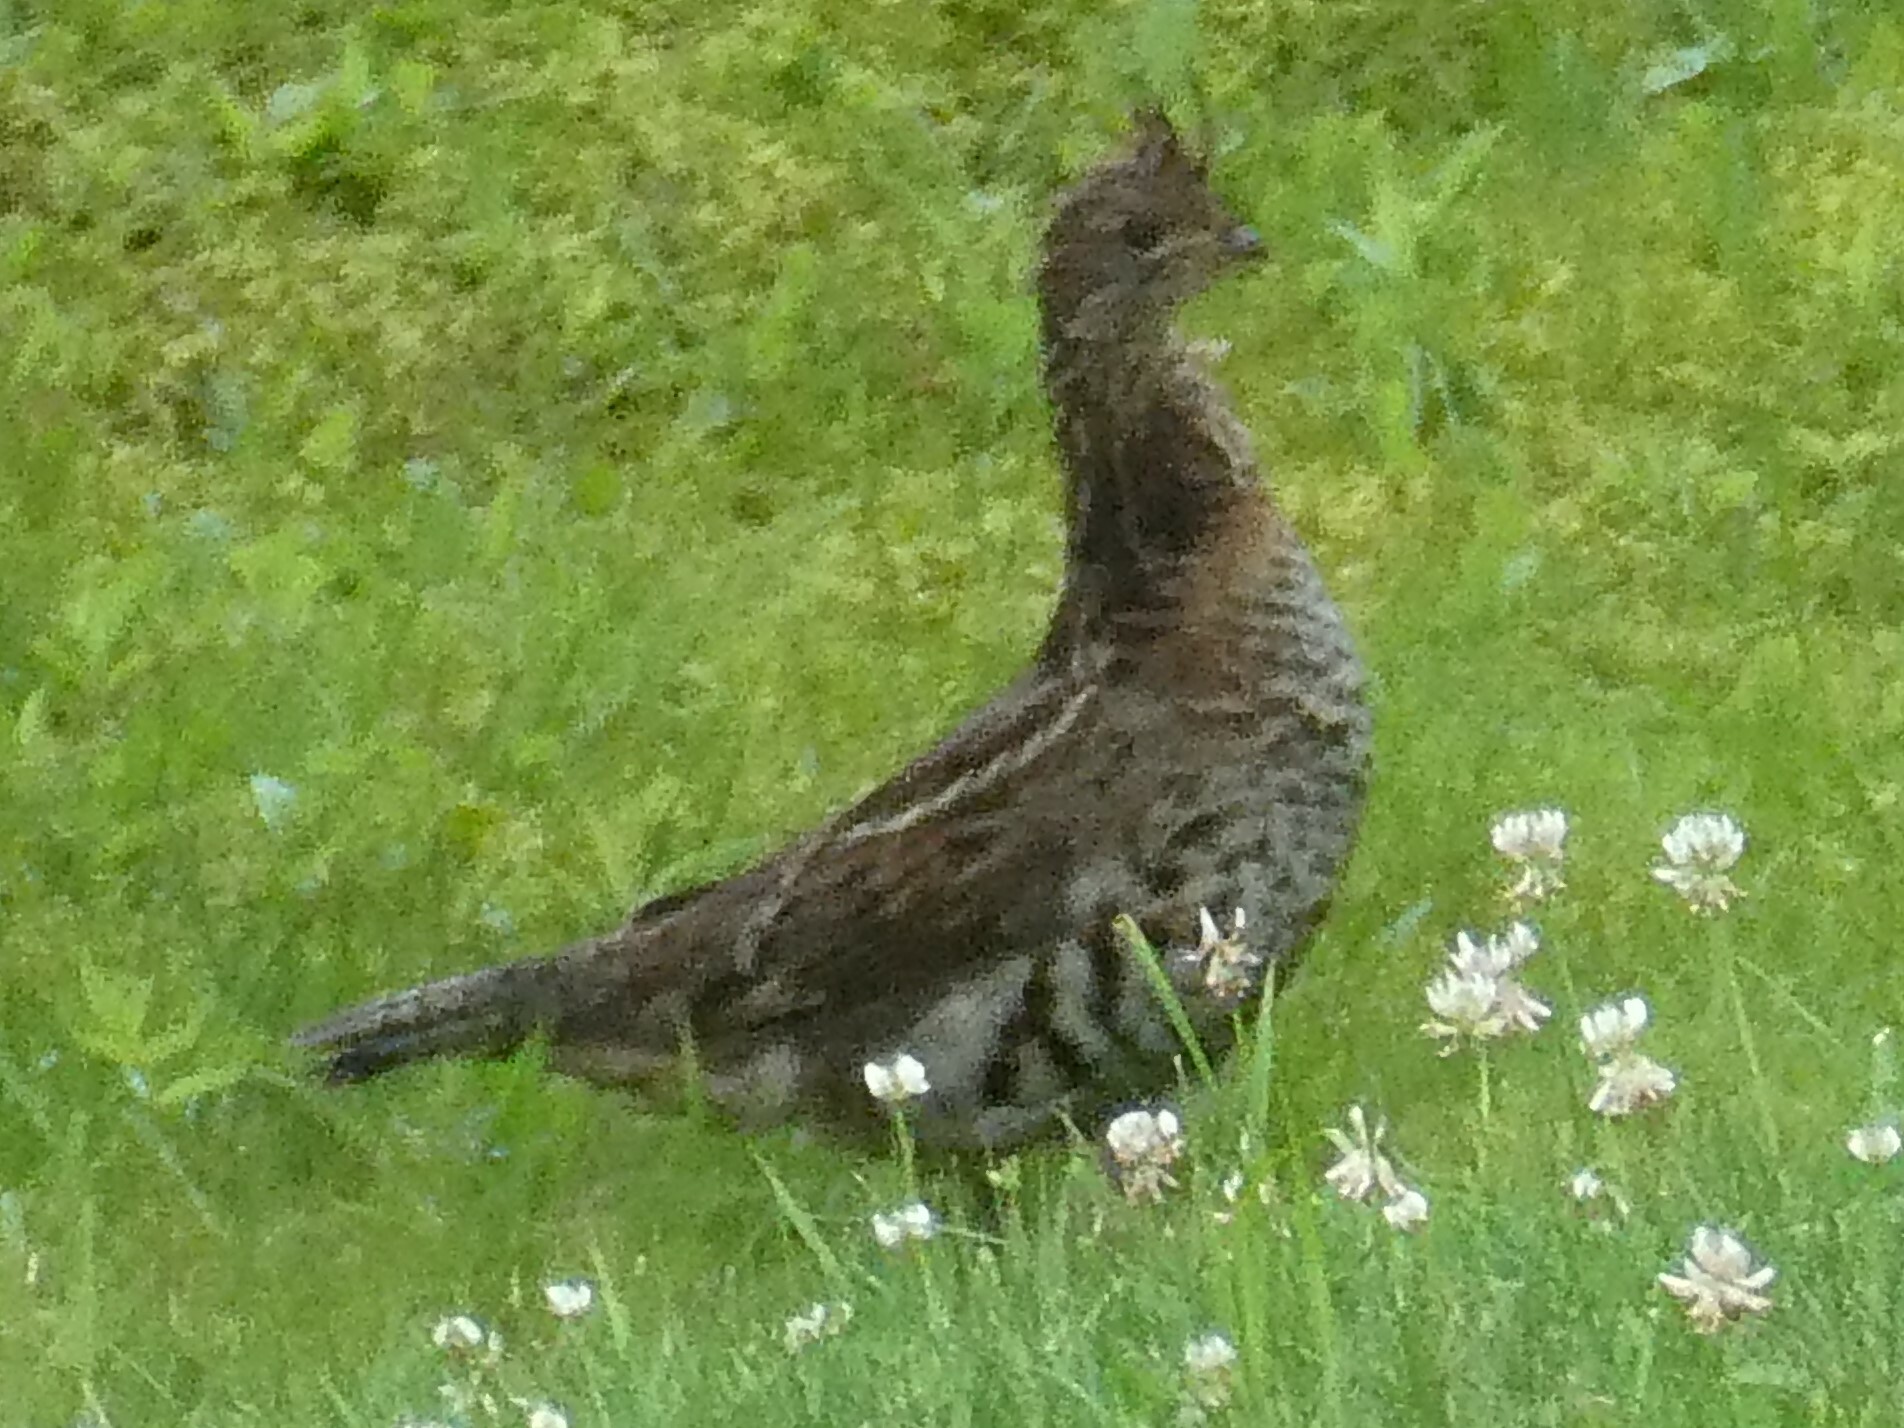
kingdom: Animalia
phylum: Chordata
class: Aves
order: Galliformes
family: Phasianidae
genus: Bonasa
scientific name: Bonasa umbellus
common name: Ruffed grouse
